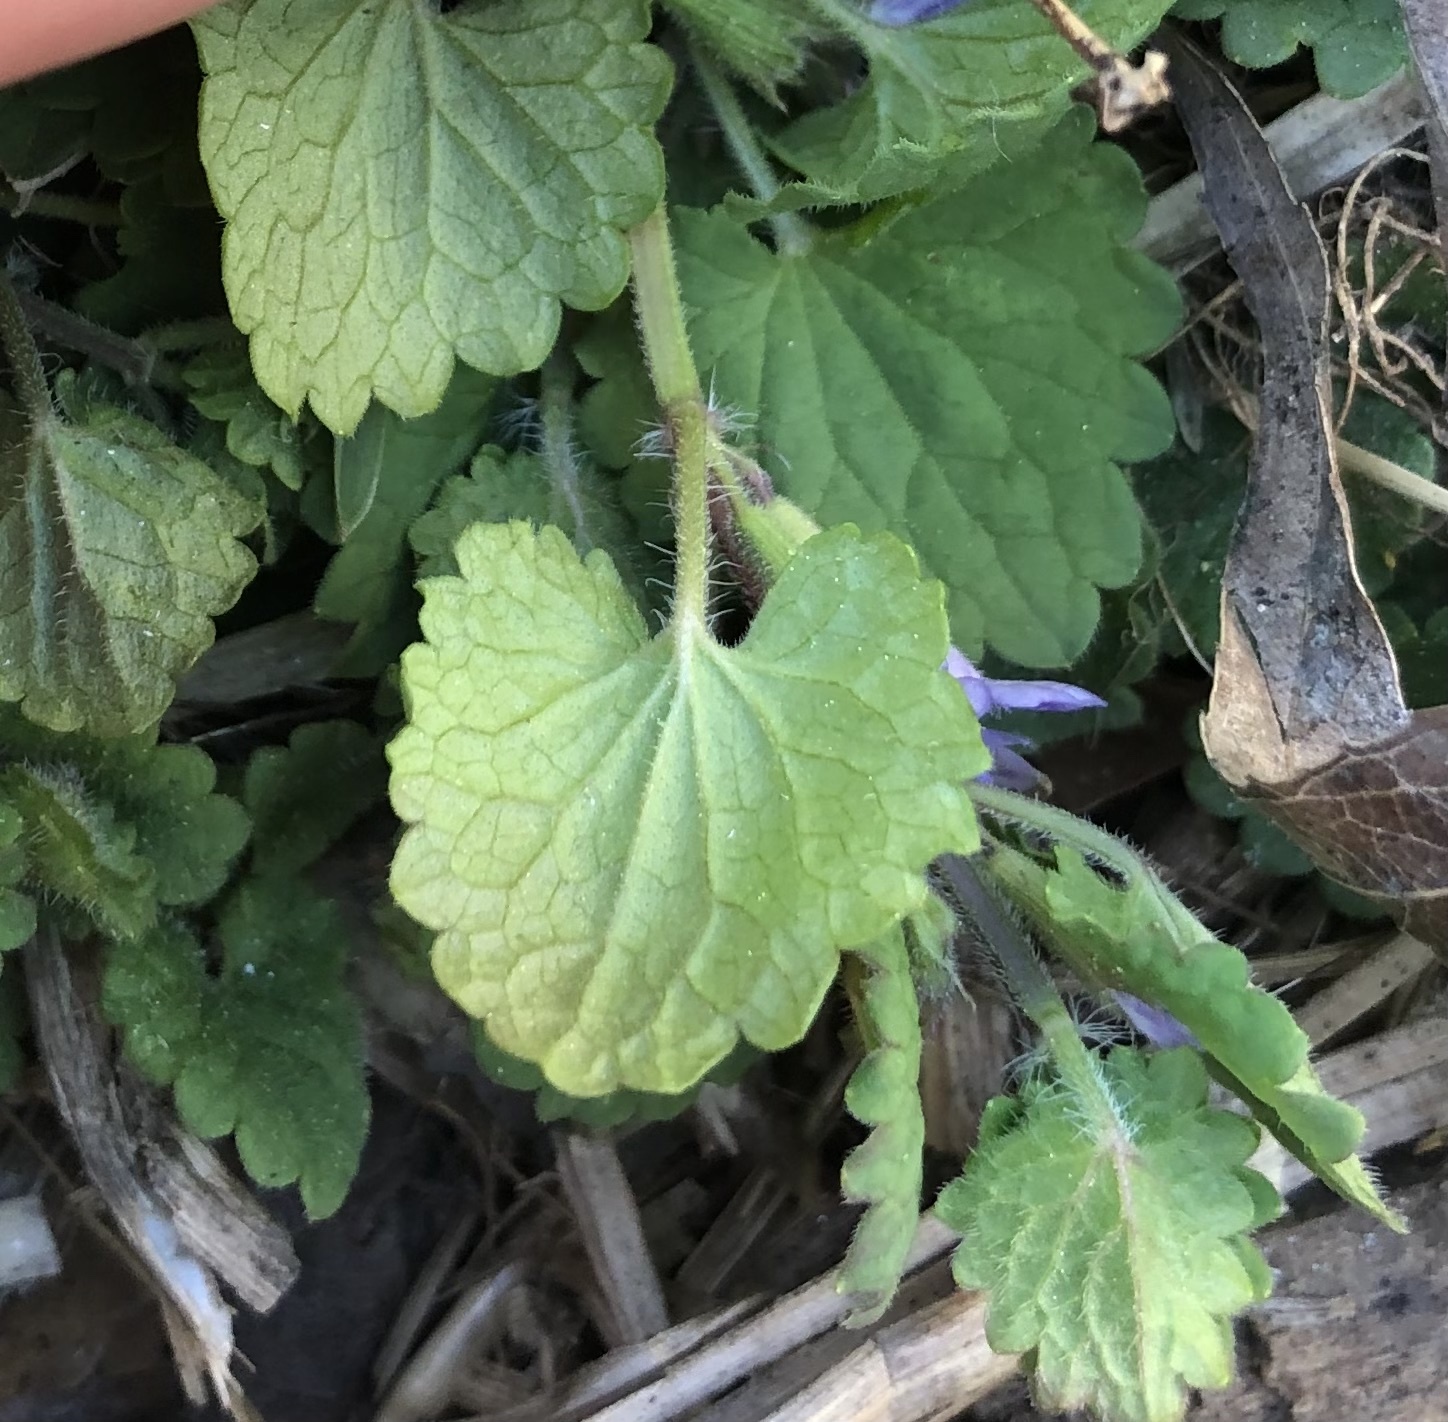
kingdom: Plantae
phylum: Tracheophyta
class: Magnoliopsida
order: Lamiales
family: Lamiaceae
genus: Glechoma
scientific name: Glechoma hederacea
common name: Ground ivy
